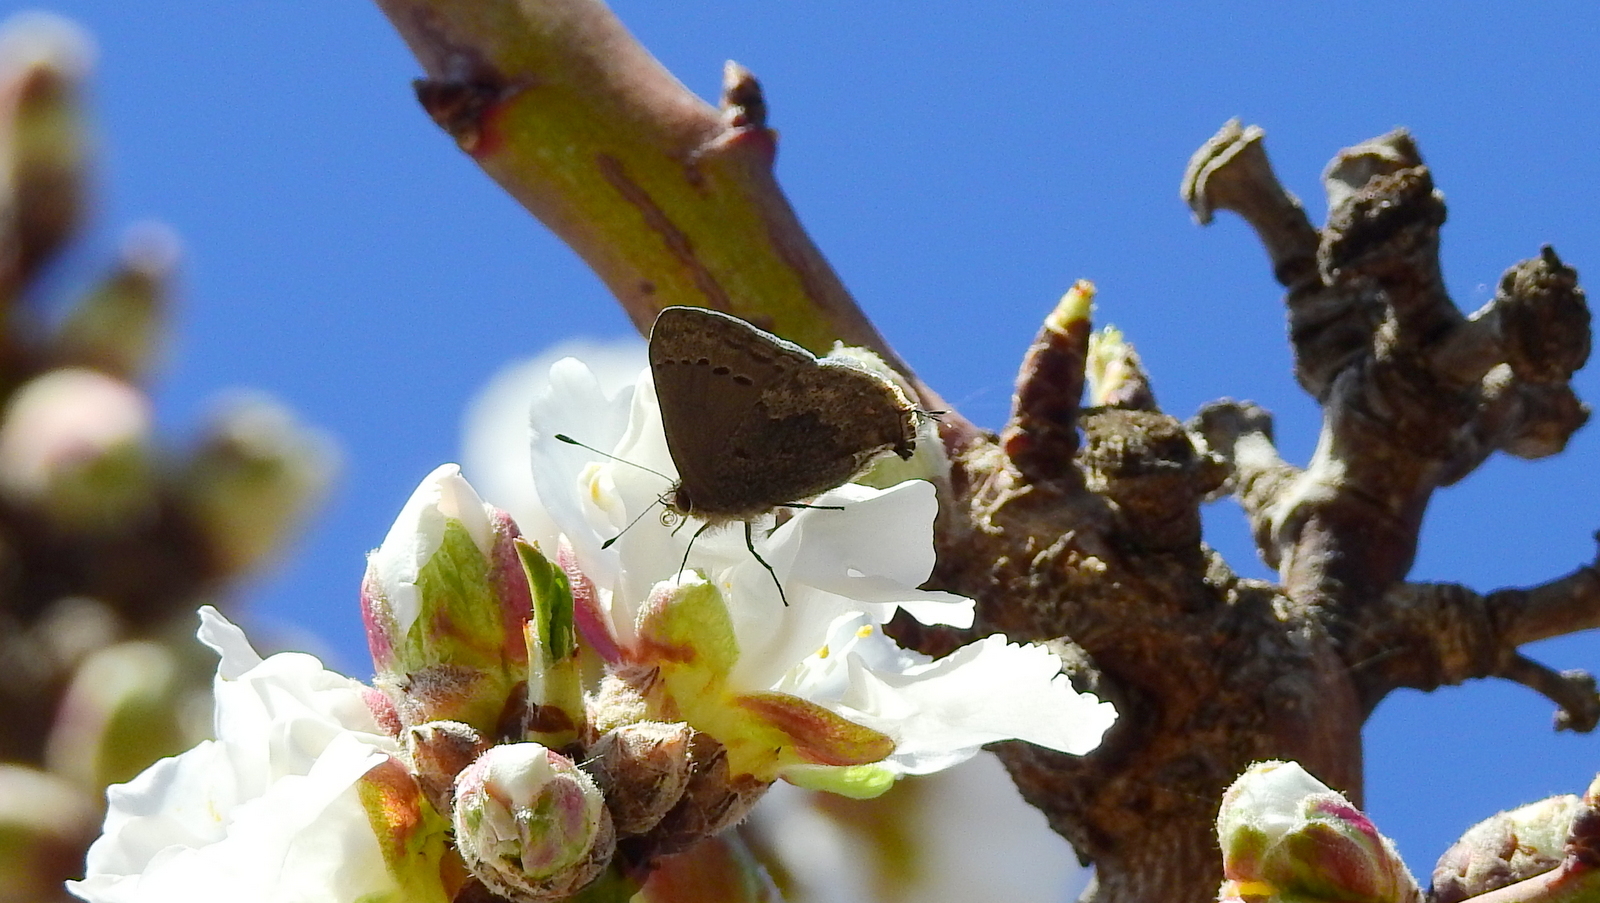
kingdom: Animalia
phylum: Arthropoda
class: Insecta
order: Lepidoptera
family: Lycaenidae
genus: Strymon
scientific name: Strymon
